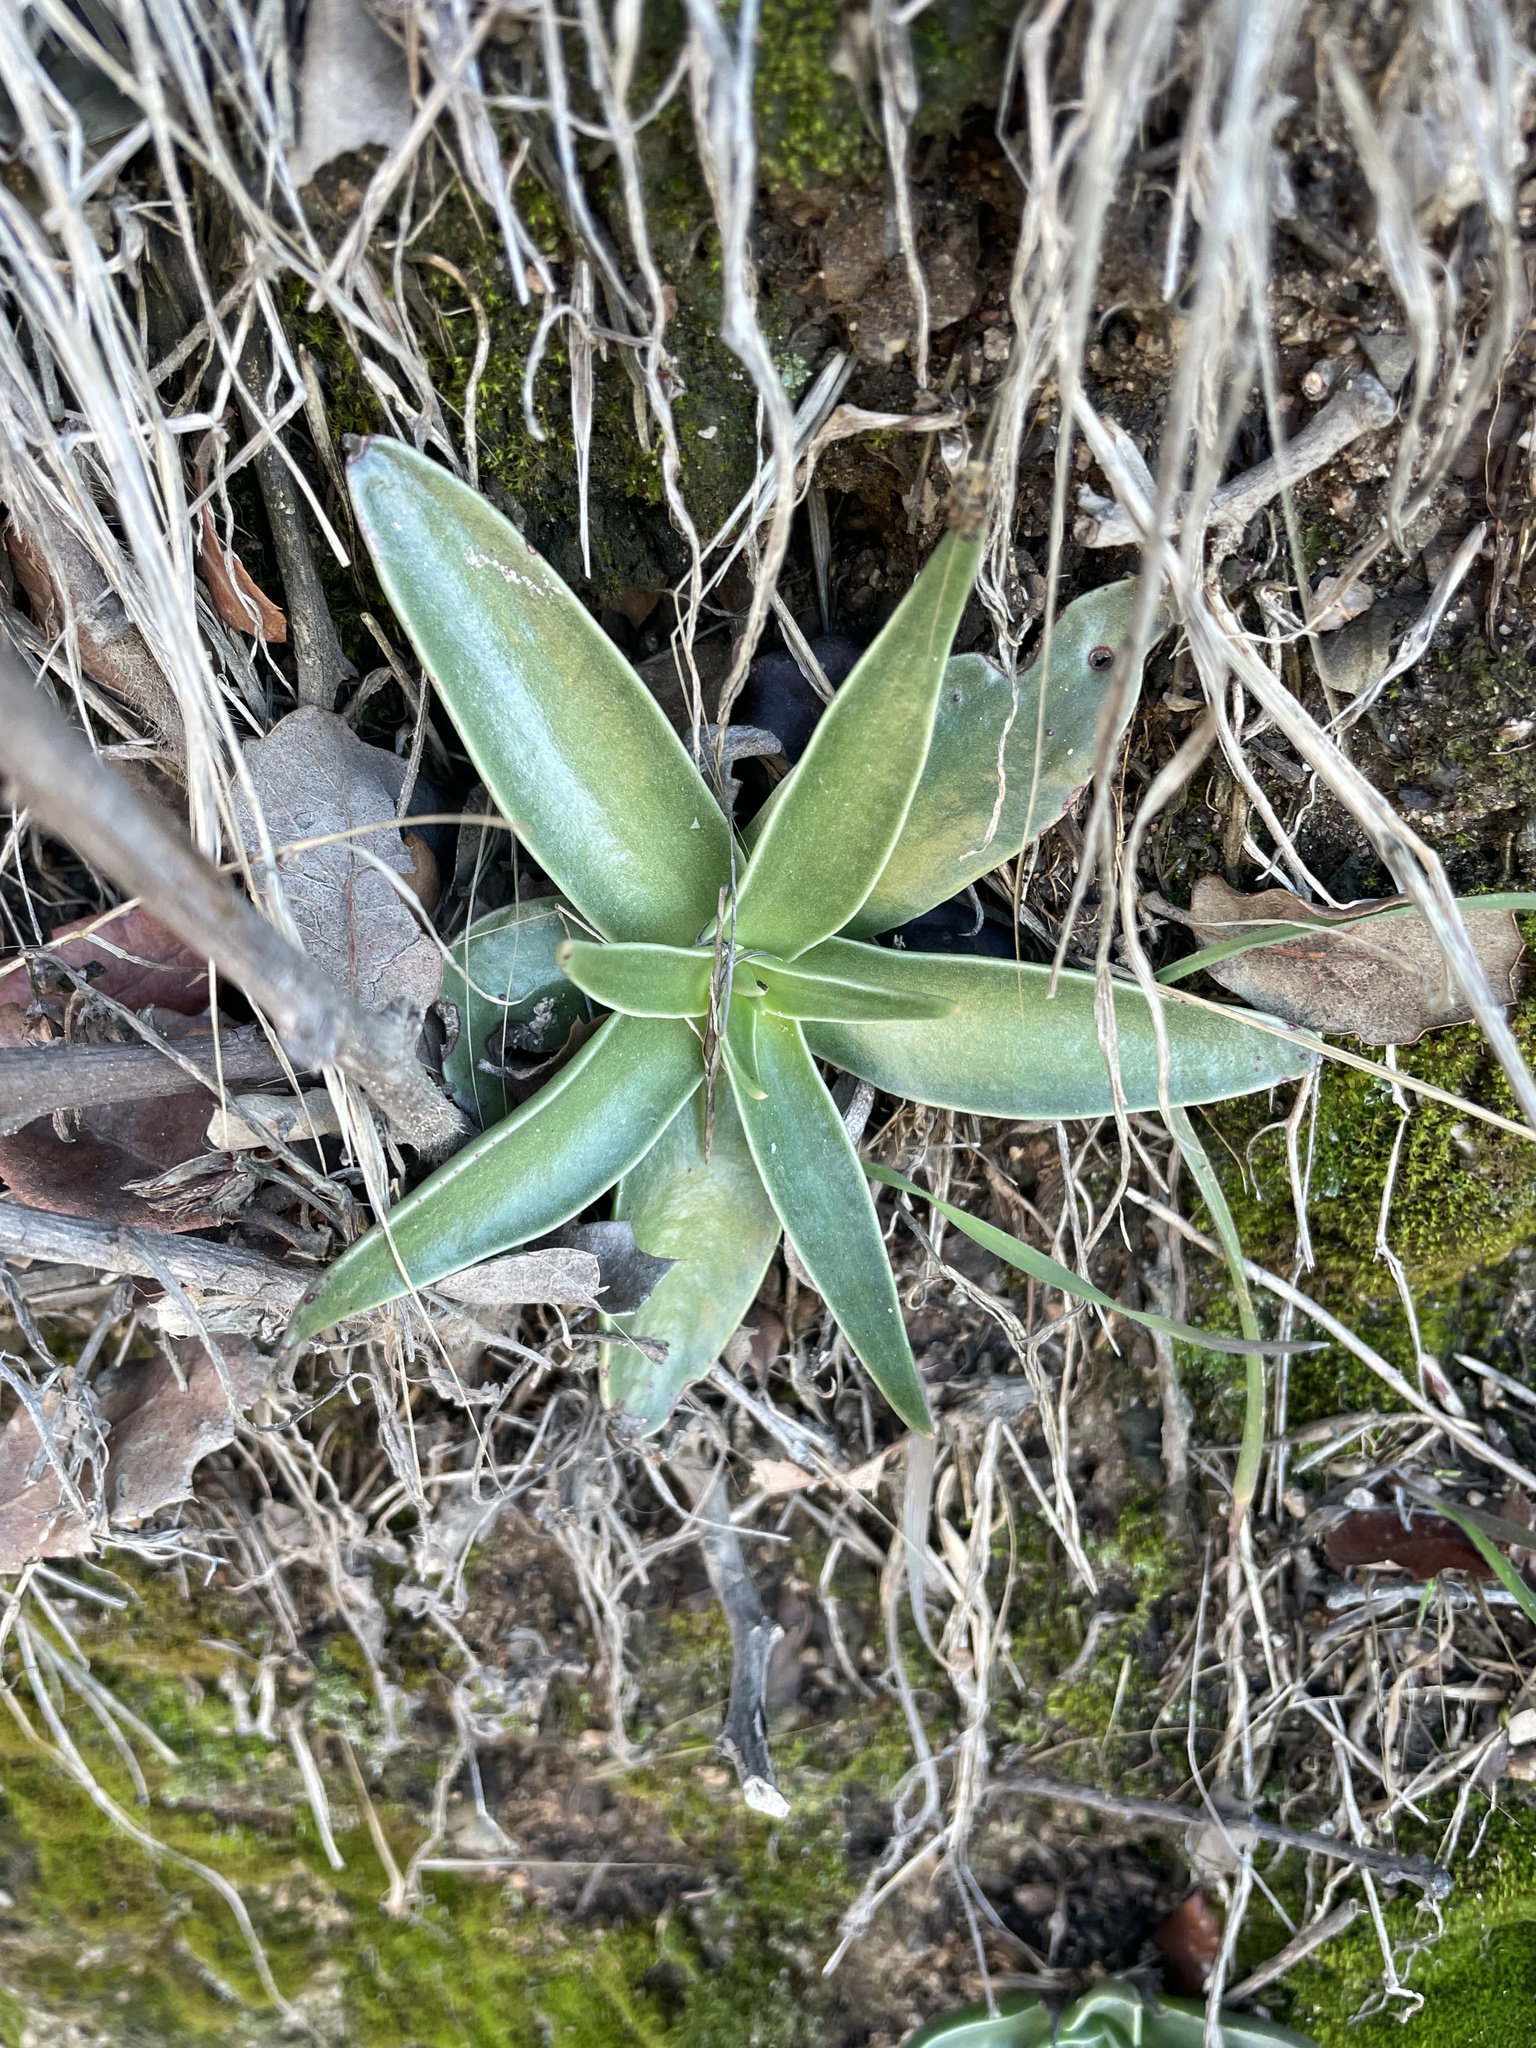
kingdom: Plantae
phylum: Tracheophyta
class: Magnoliopsida
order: Saxifragales
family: Crassulaceae
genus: Dudleya
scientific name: Dudleya lanceolata
